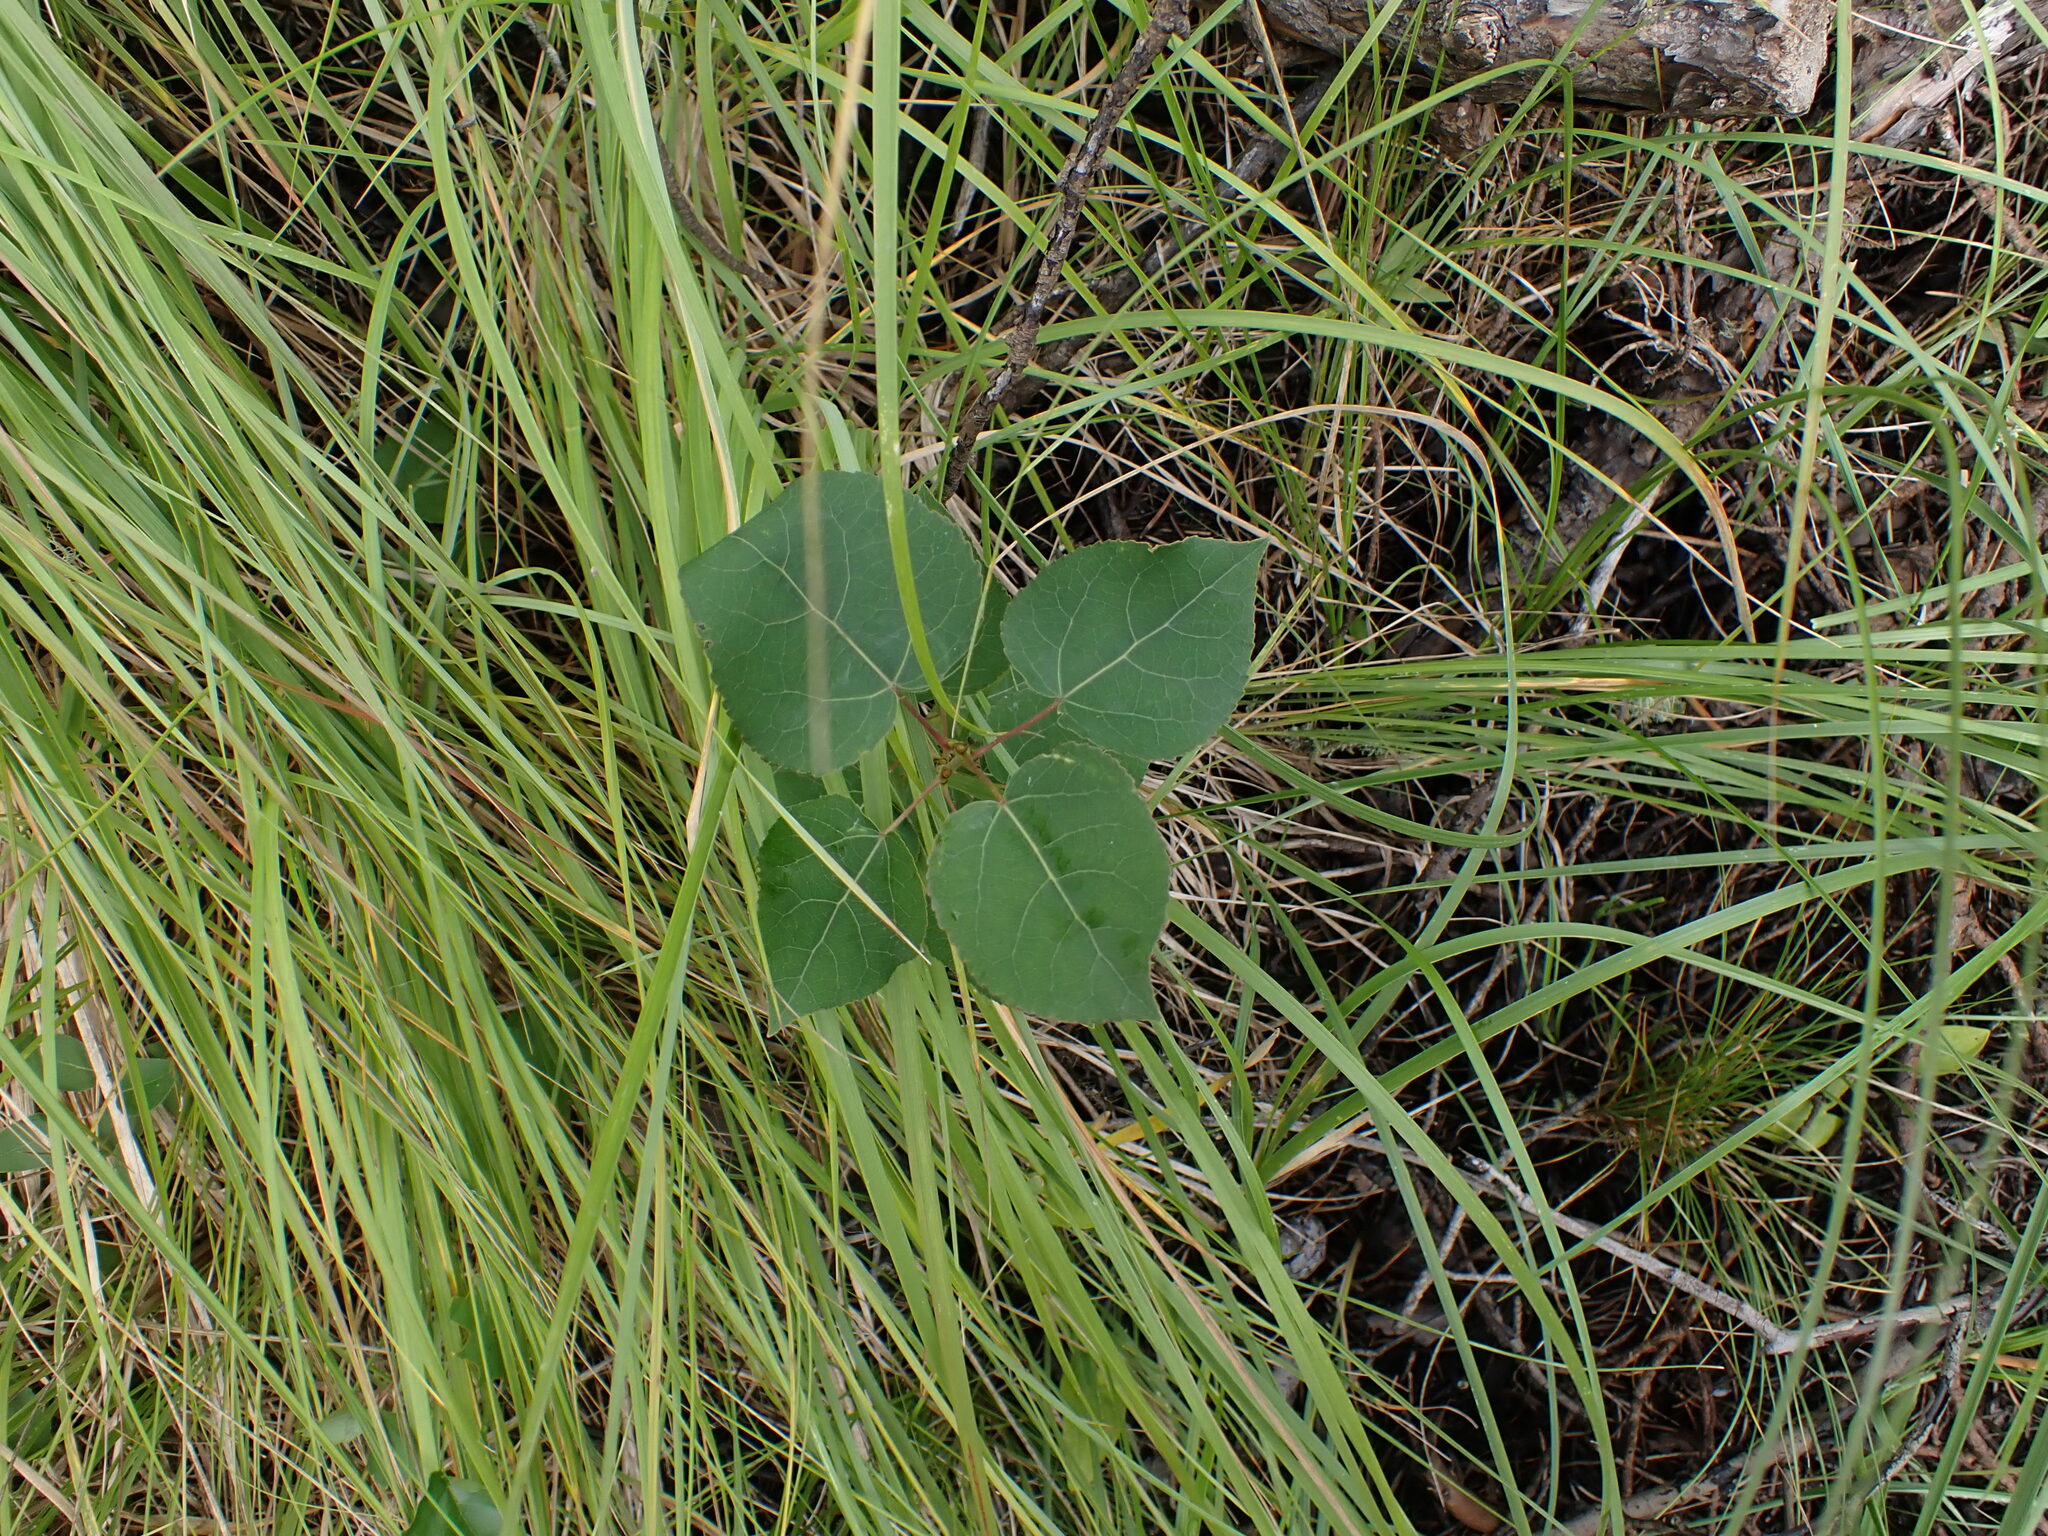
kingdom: Plantae
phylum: Tracheophyta
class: Magnoliopsida
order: Malpighiales
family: Salicaceae
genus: Populus
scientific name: Populus tremuloides
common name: Quaking aspen
